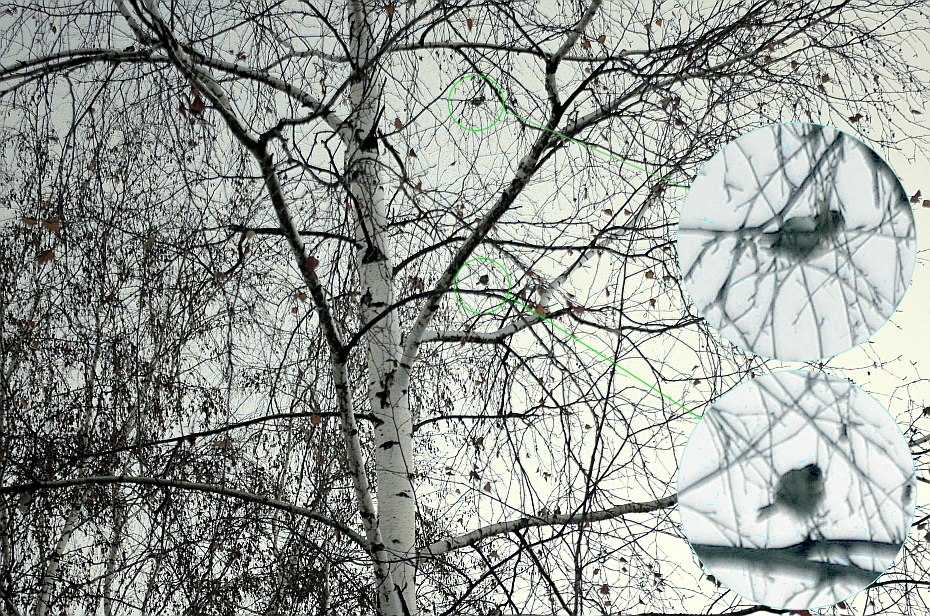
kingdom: Animalia
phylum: Chordata
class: Aves
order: Passeriformes
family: Fringillidae
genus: Acanthis
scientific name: Acanthis flammea
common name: Common redpoll
